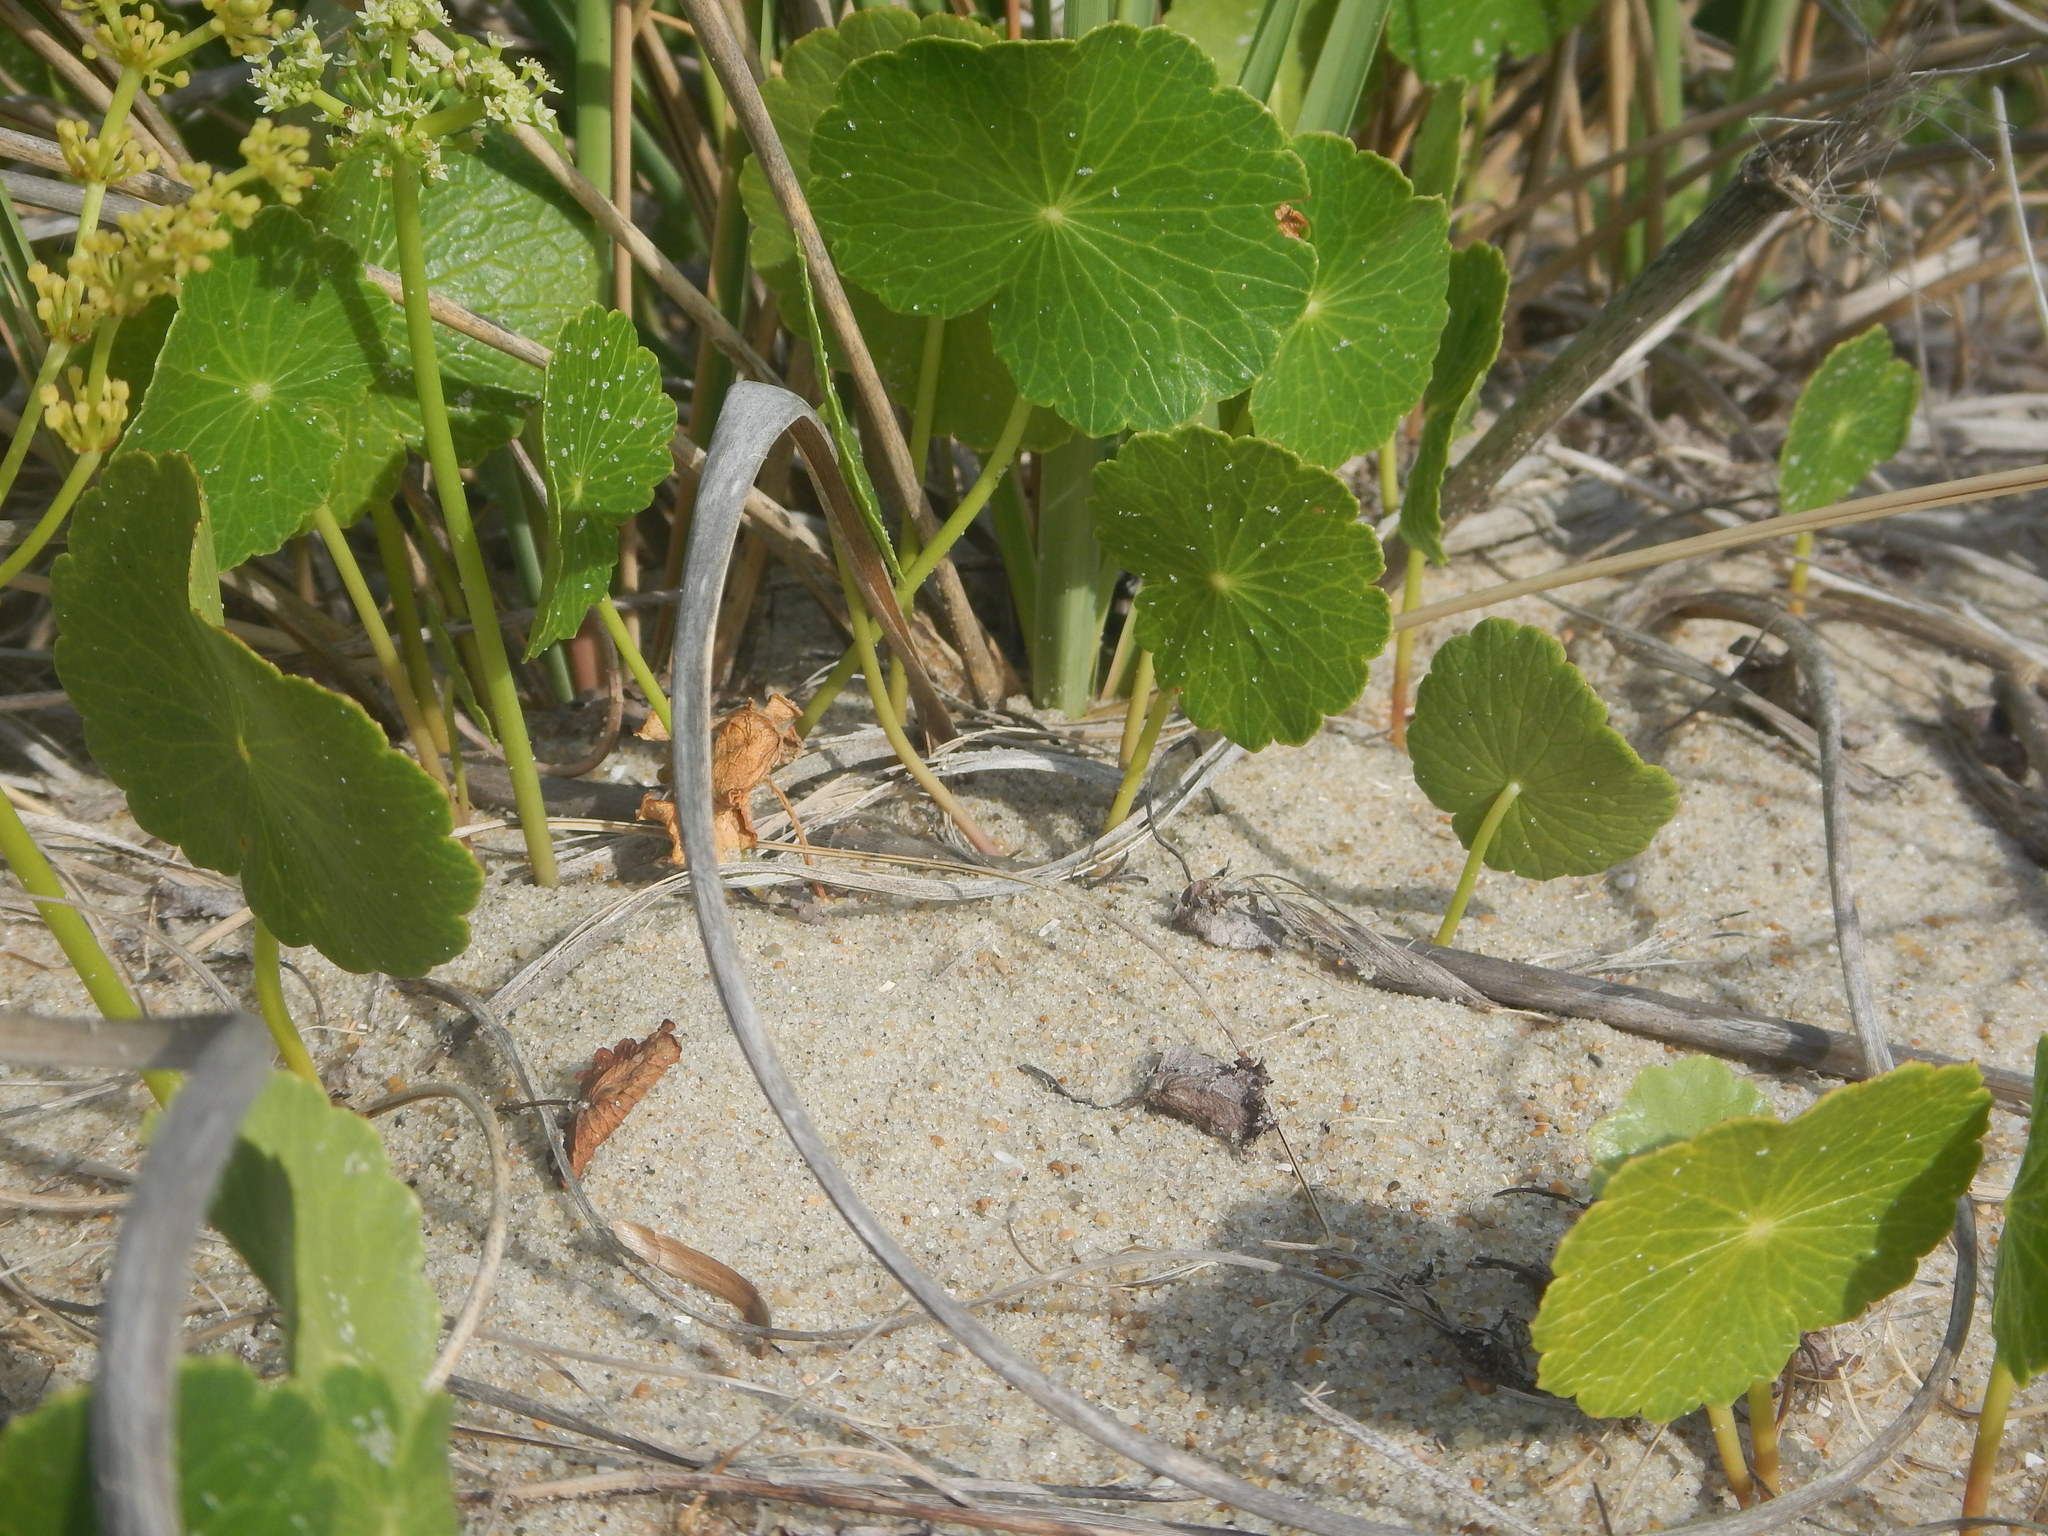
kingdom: Plantae
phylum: Tracheophyta
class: Magnoliopsida
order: Apiales
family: Araliaceae
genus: Hydrocotyle
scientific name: Hydrocotyle bonariensis
